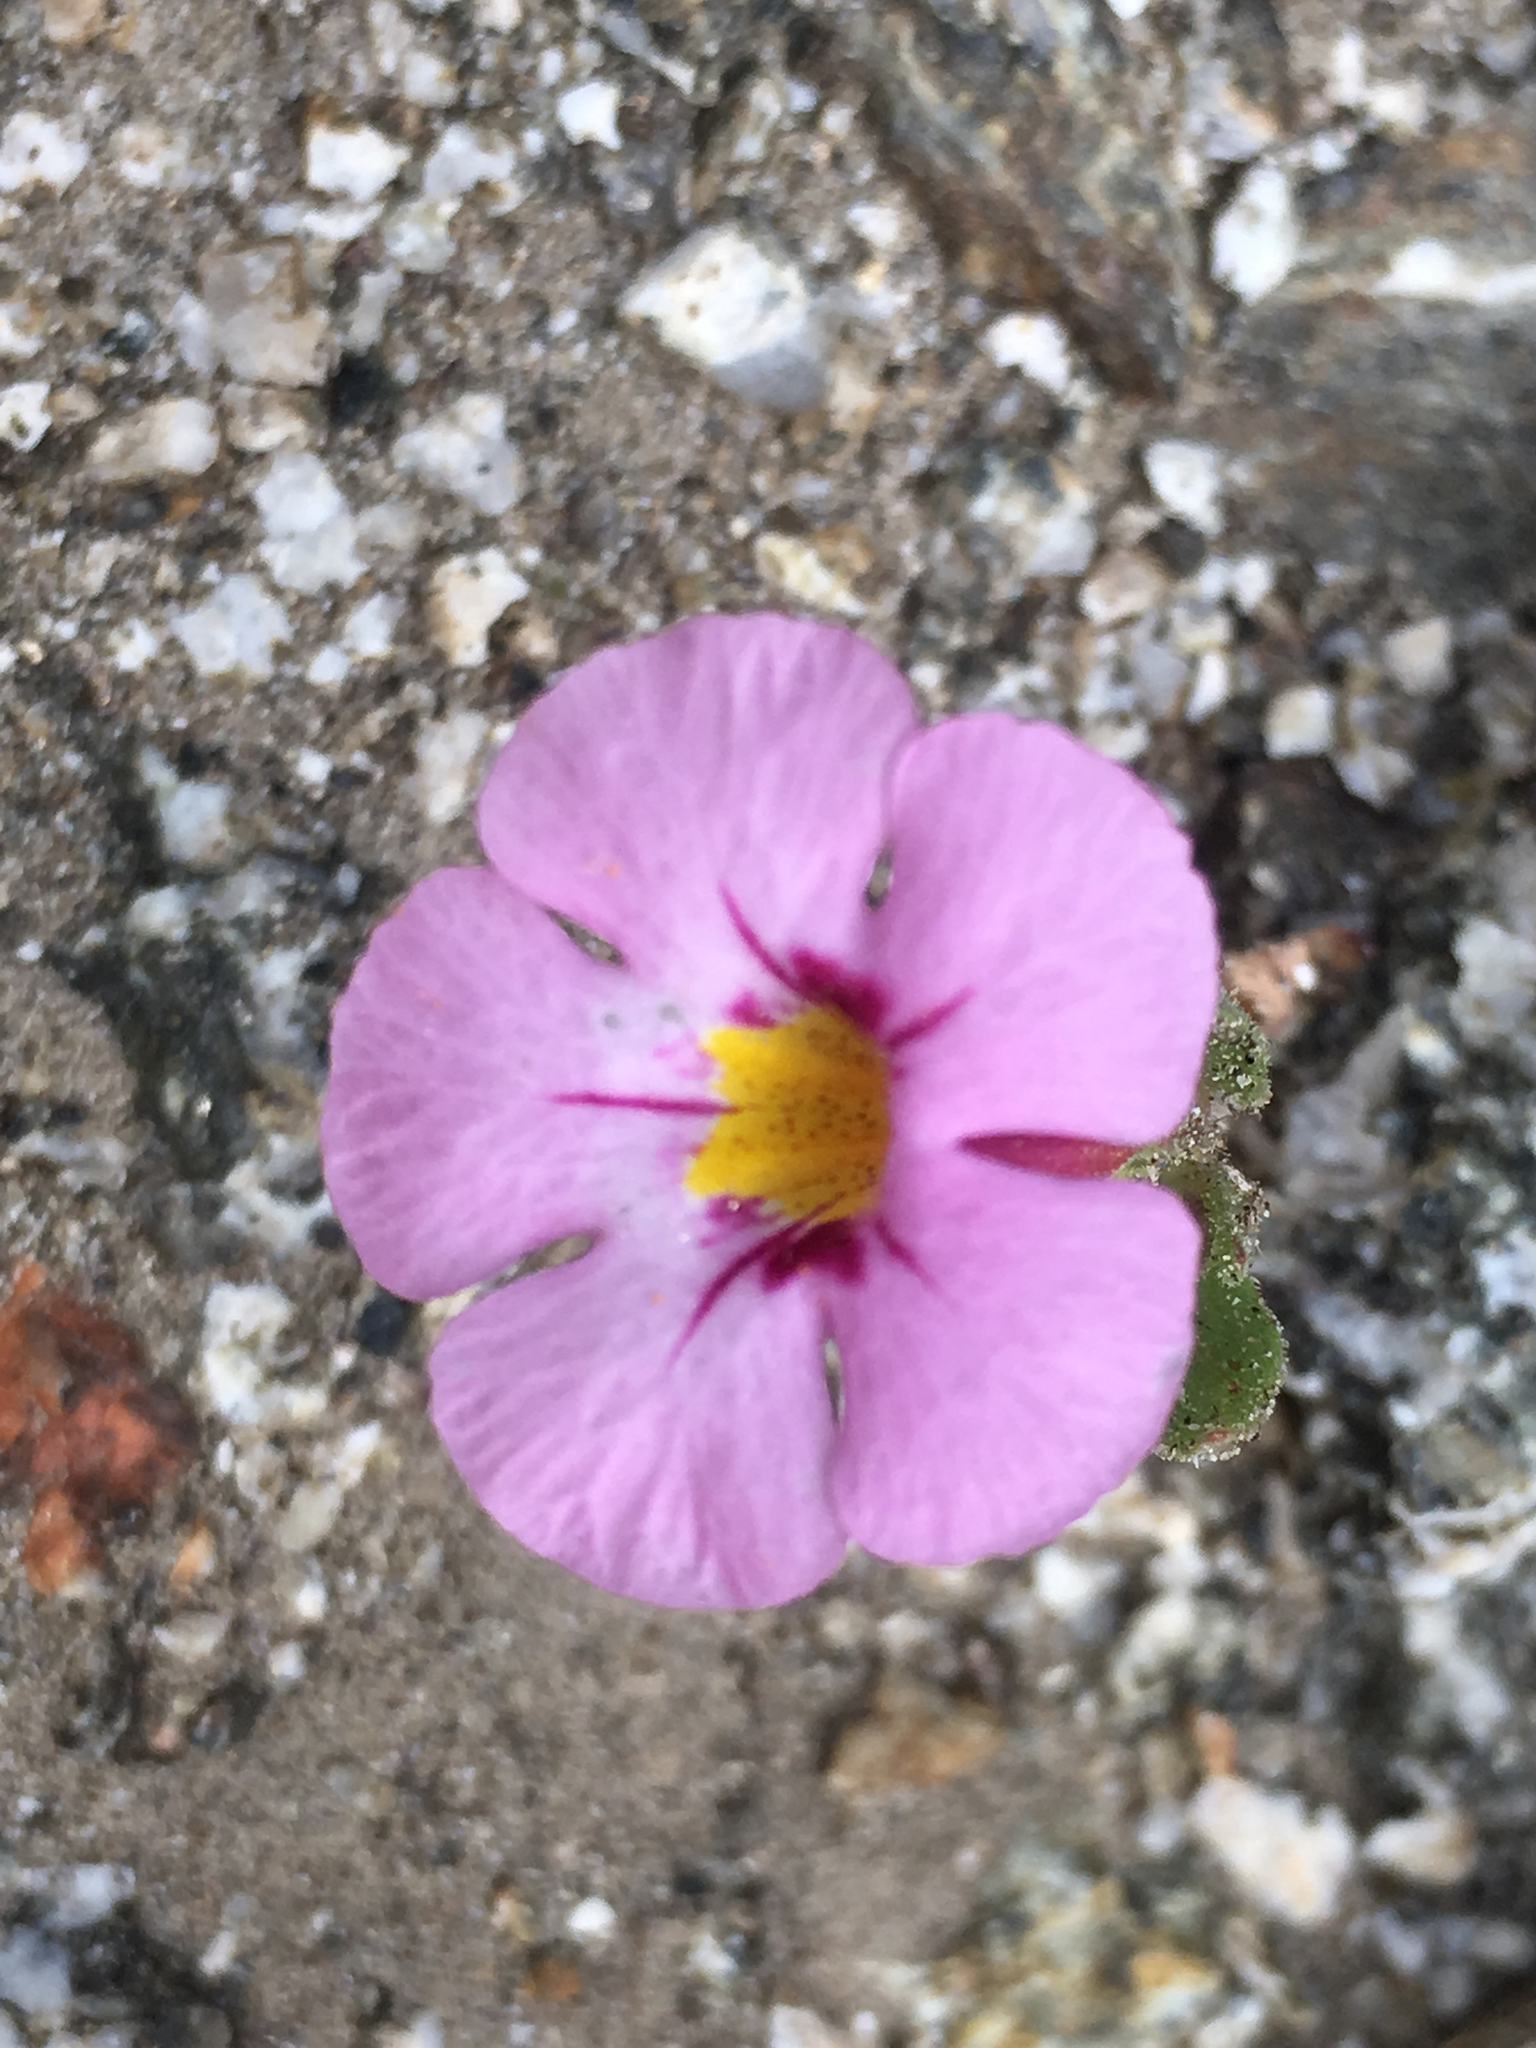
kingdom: Plantae
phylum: Tracheophyta
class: Magnoliopsida
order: Lamiales
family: Phrymaceae
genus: Diplacus
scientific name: Diplacus bigelovii
